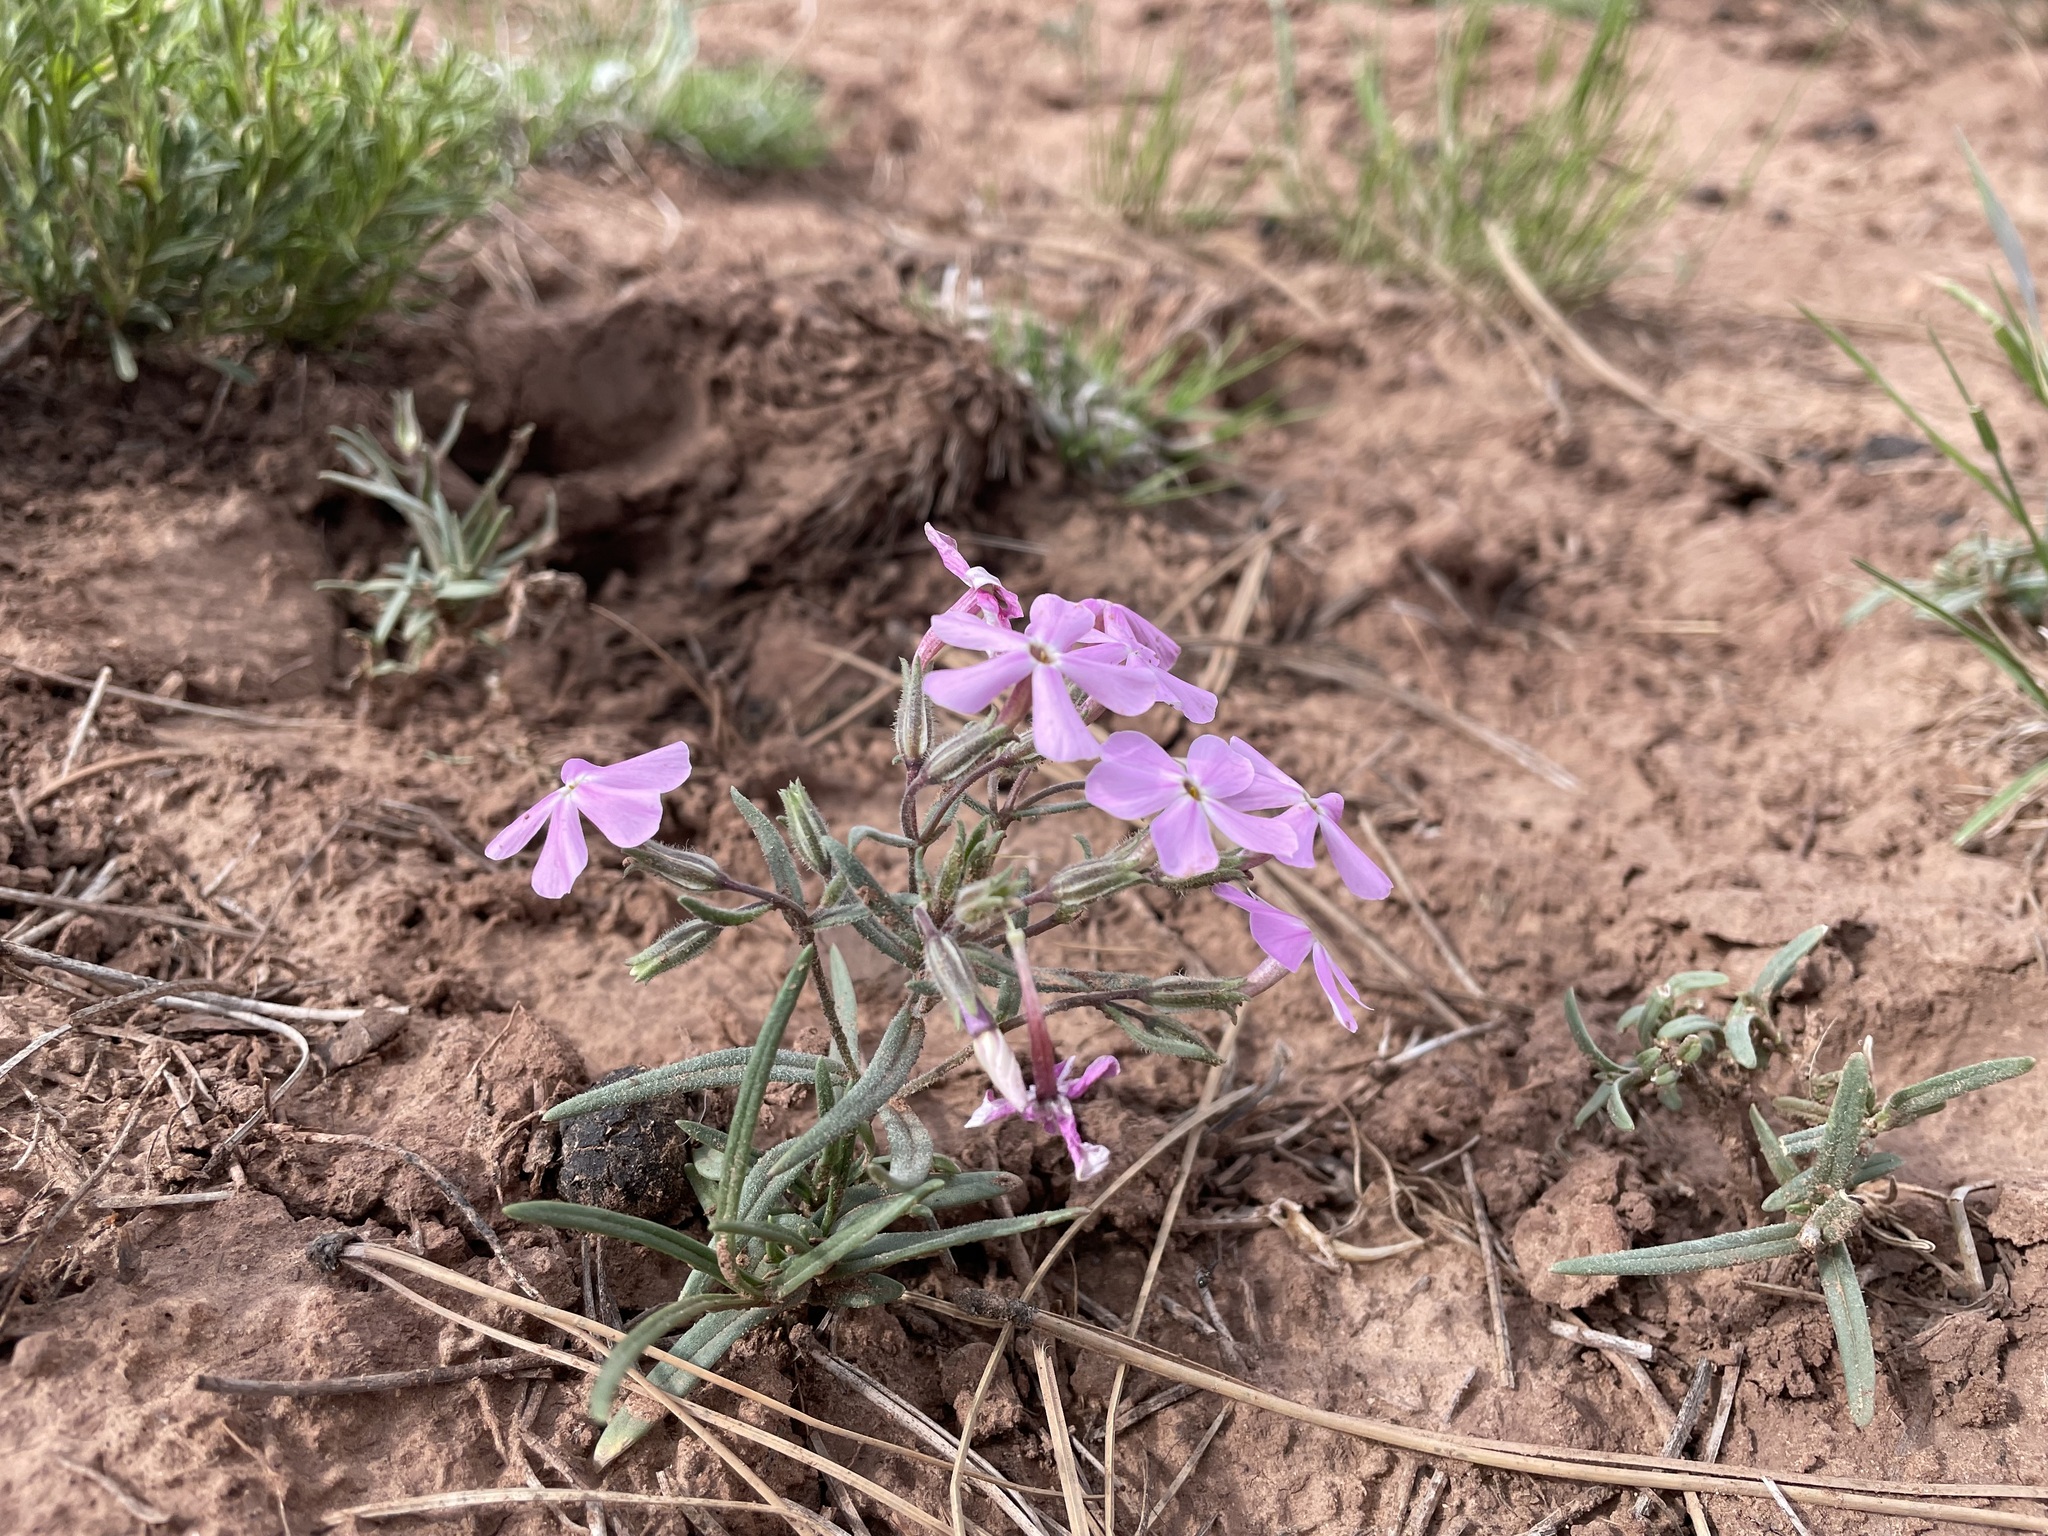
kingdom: Plantae
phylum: Tracheophyta
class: Magnoliopsida
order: Ericales
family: Polemoniaceae
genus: Phlox
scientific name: Phlox longifolia
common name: Longleaf phlox
